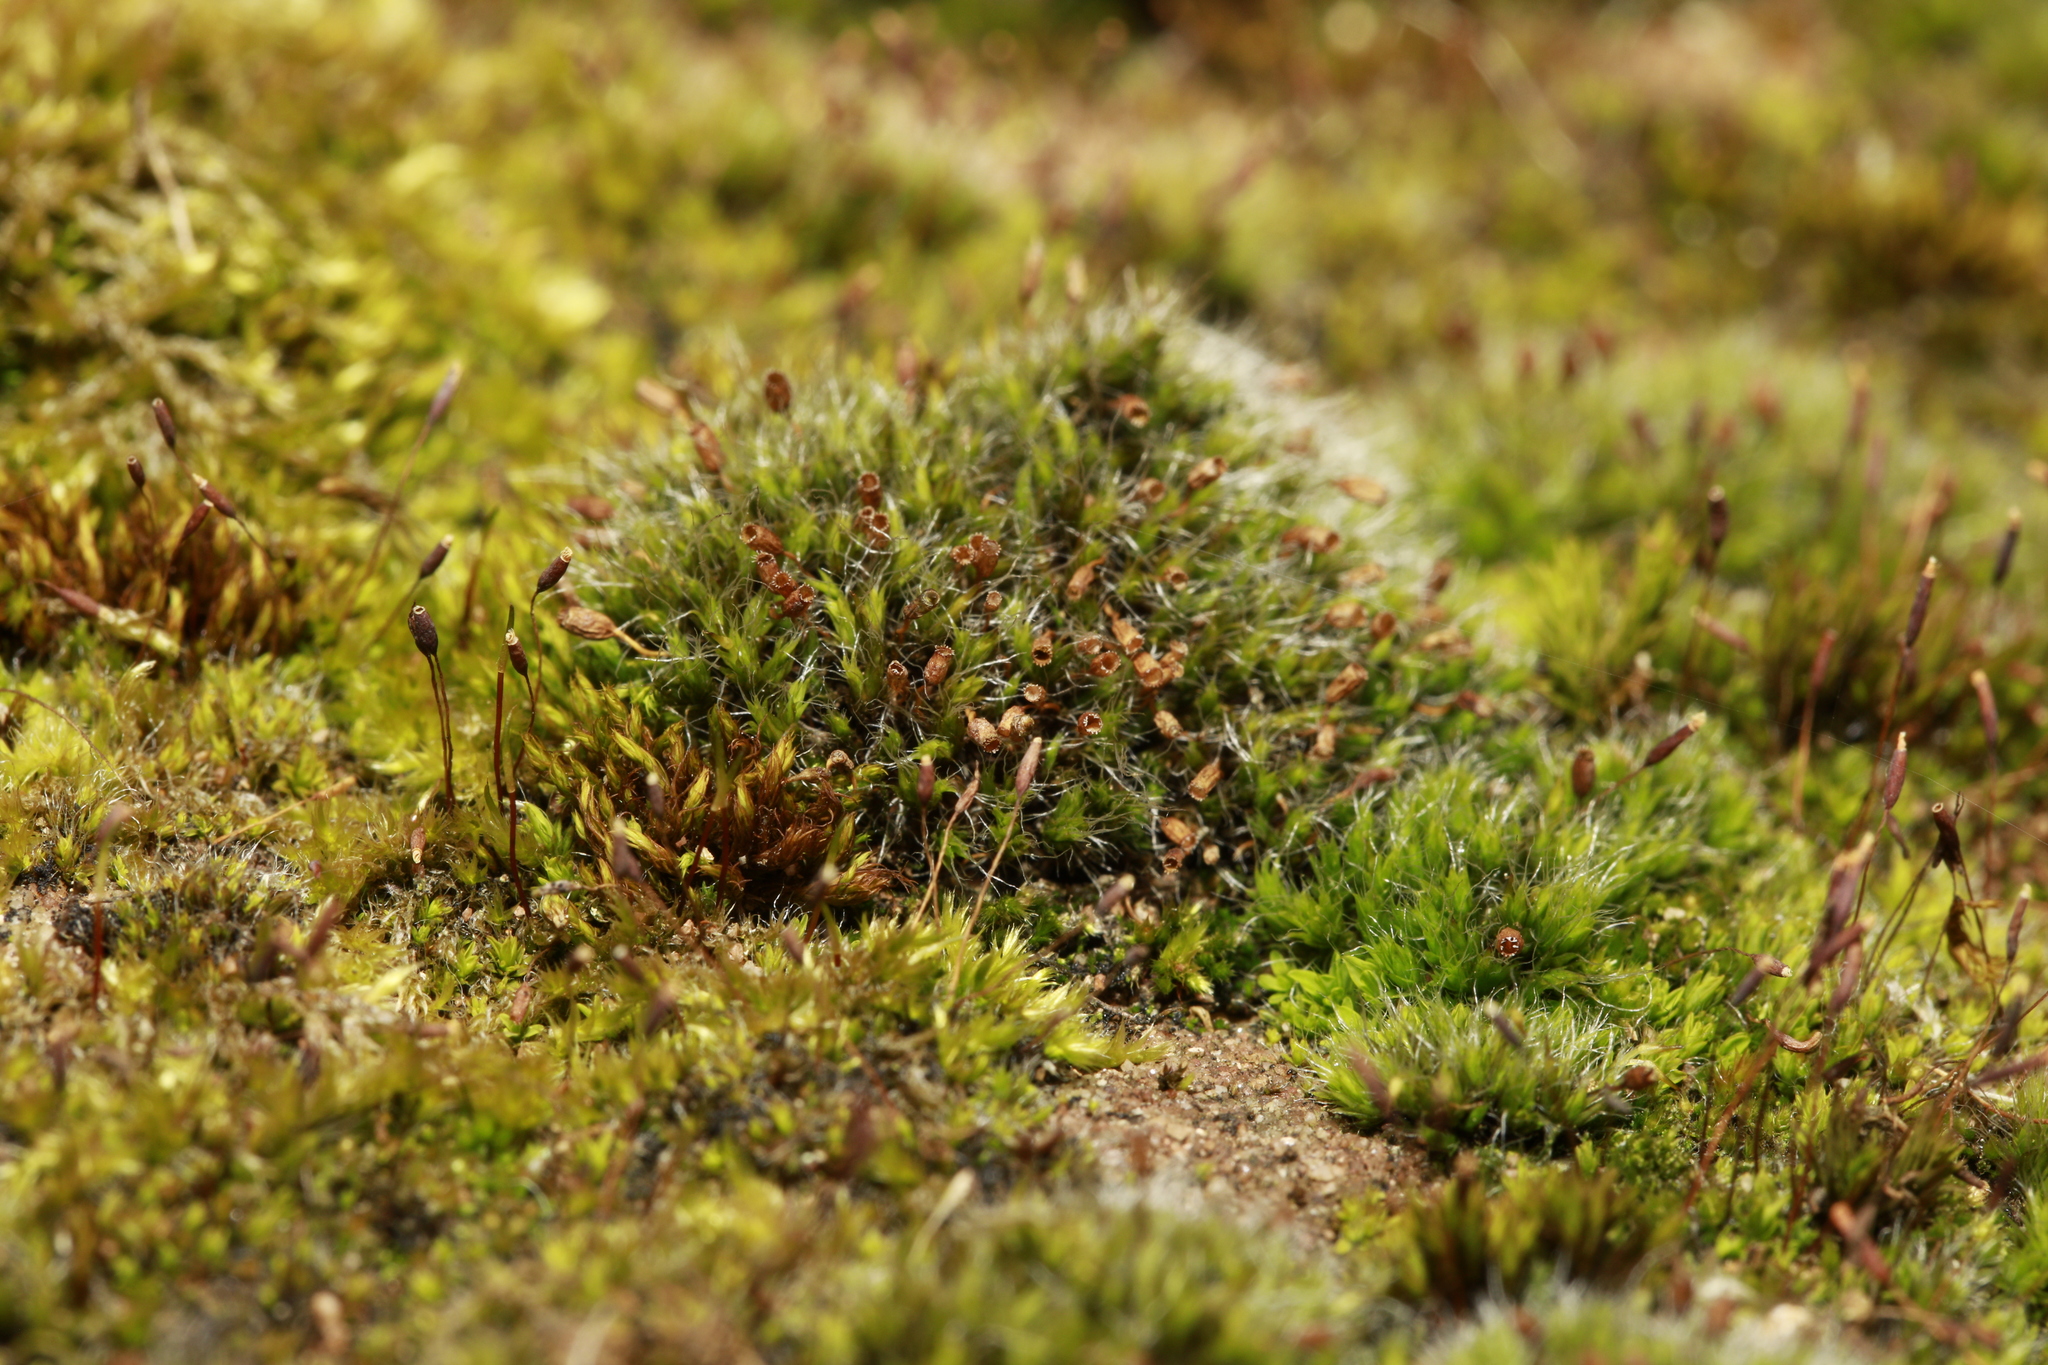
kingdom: Plantae
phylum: Bryophyta
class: Bryopsida
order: Grimmiales
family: Grimmiaceae
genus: Grimmia
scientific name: Grimmia pulvinata
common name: Grey-cushioned grimmia
